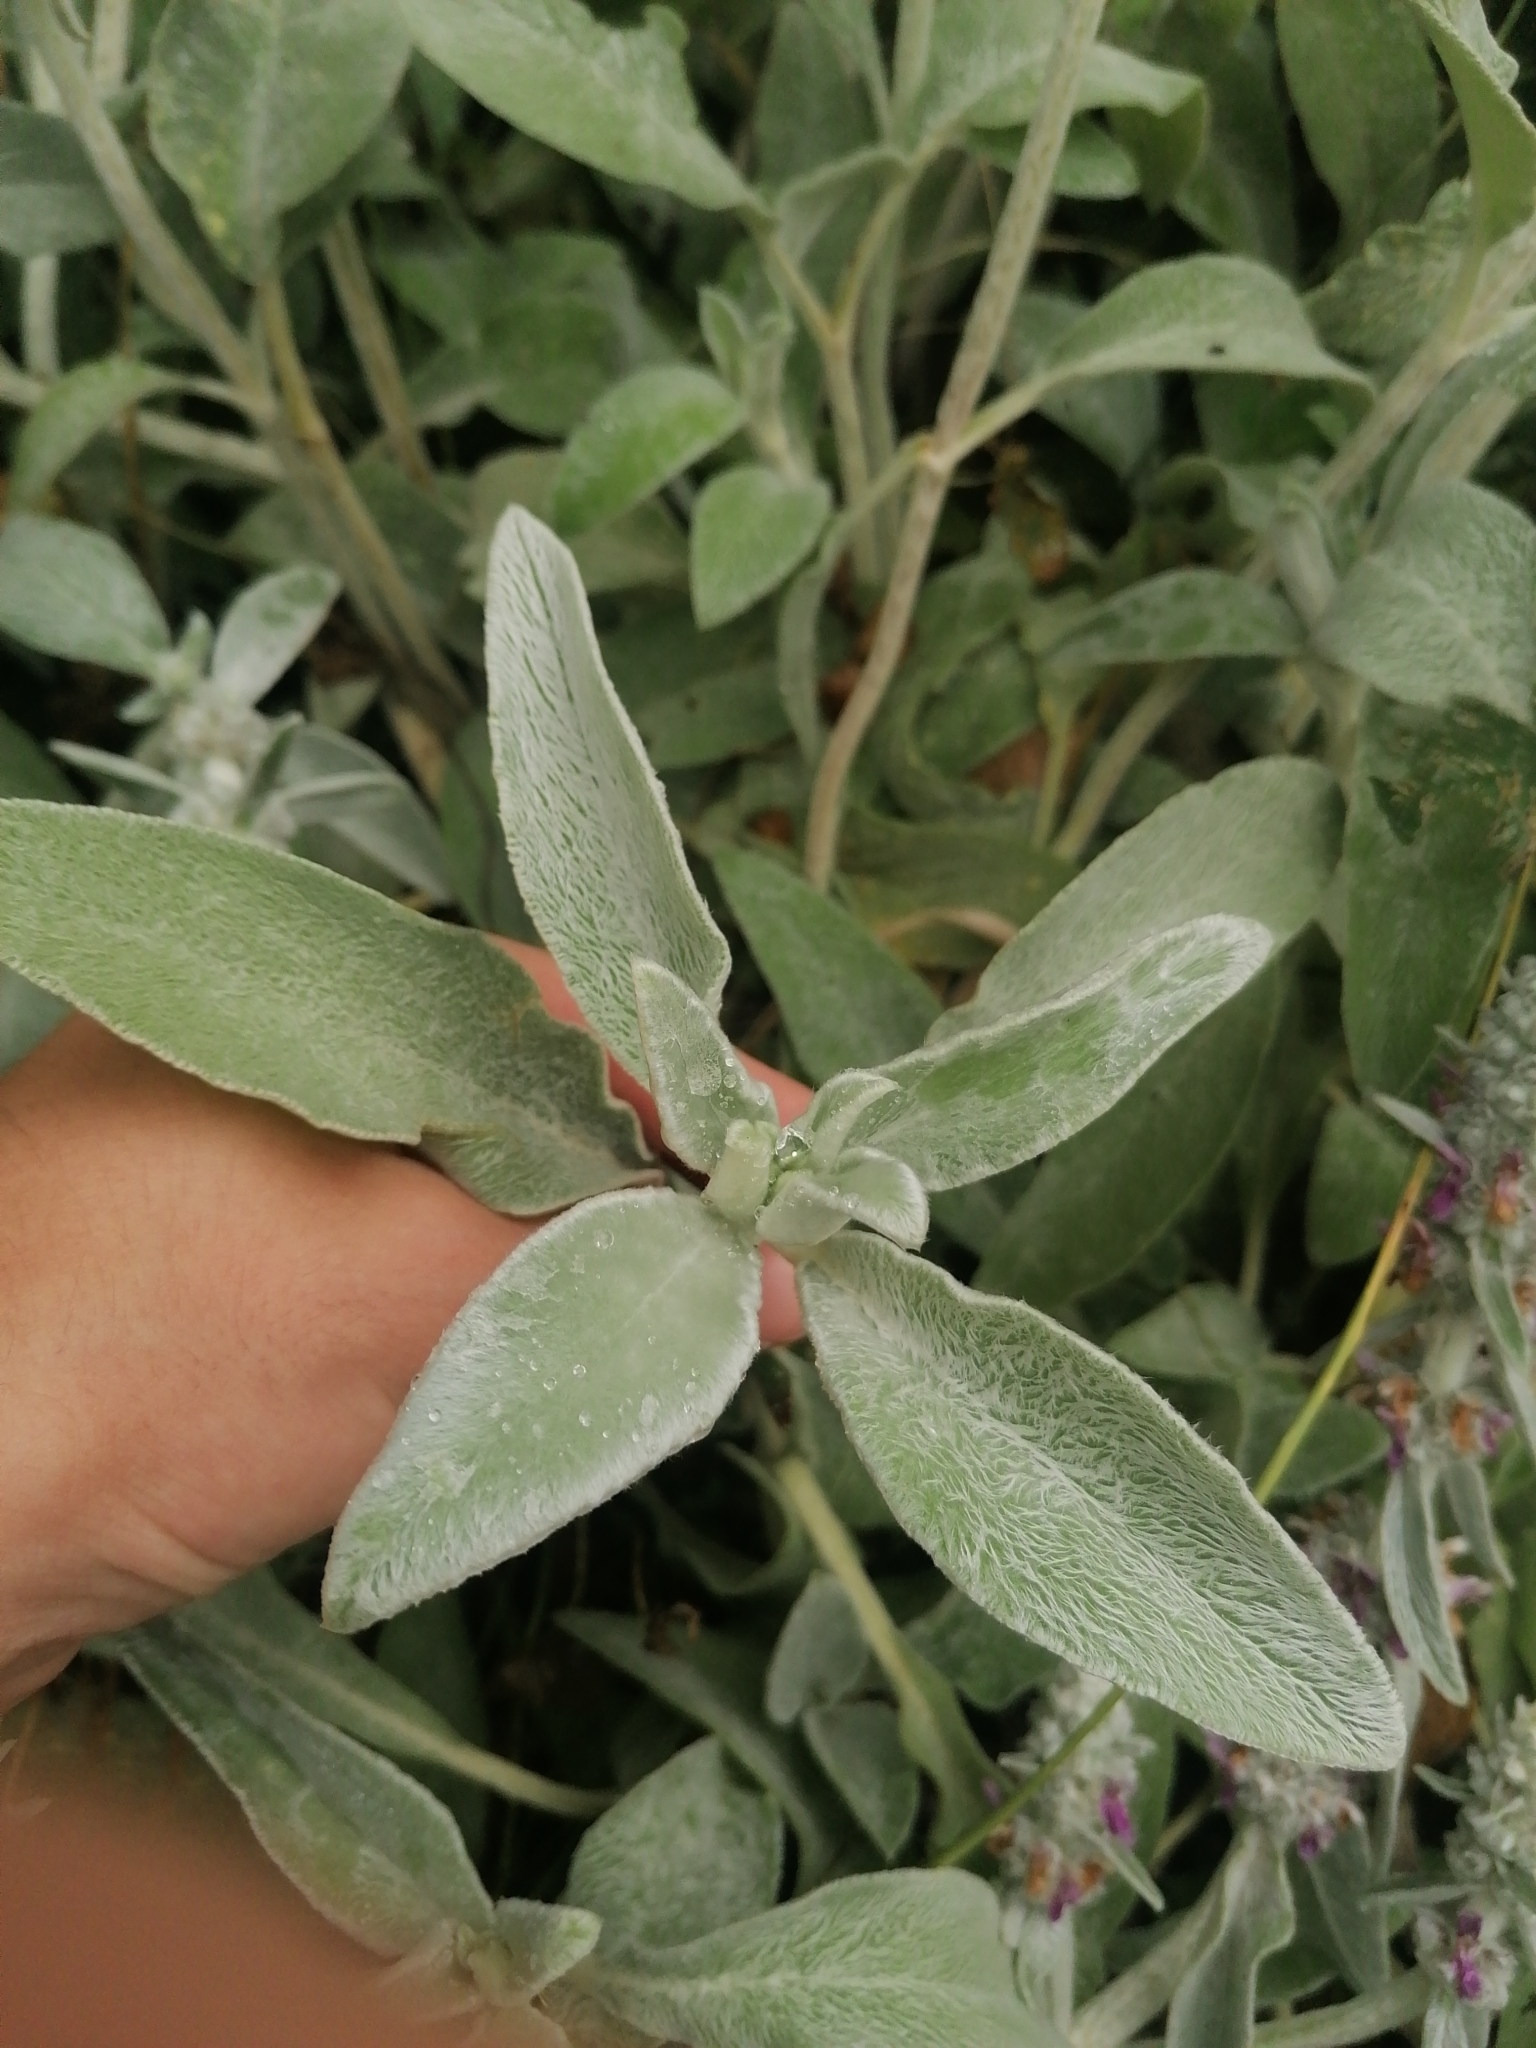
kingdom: Plantae
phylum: Tracheophyta
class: Magnoliopsida
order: Lamiales
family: Lamiaceae
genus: Stachys
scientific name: Stachys byzantina
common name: Lamb's-ear
